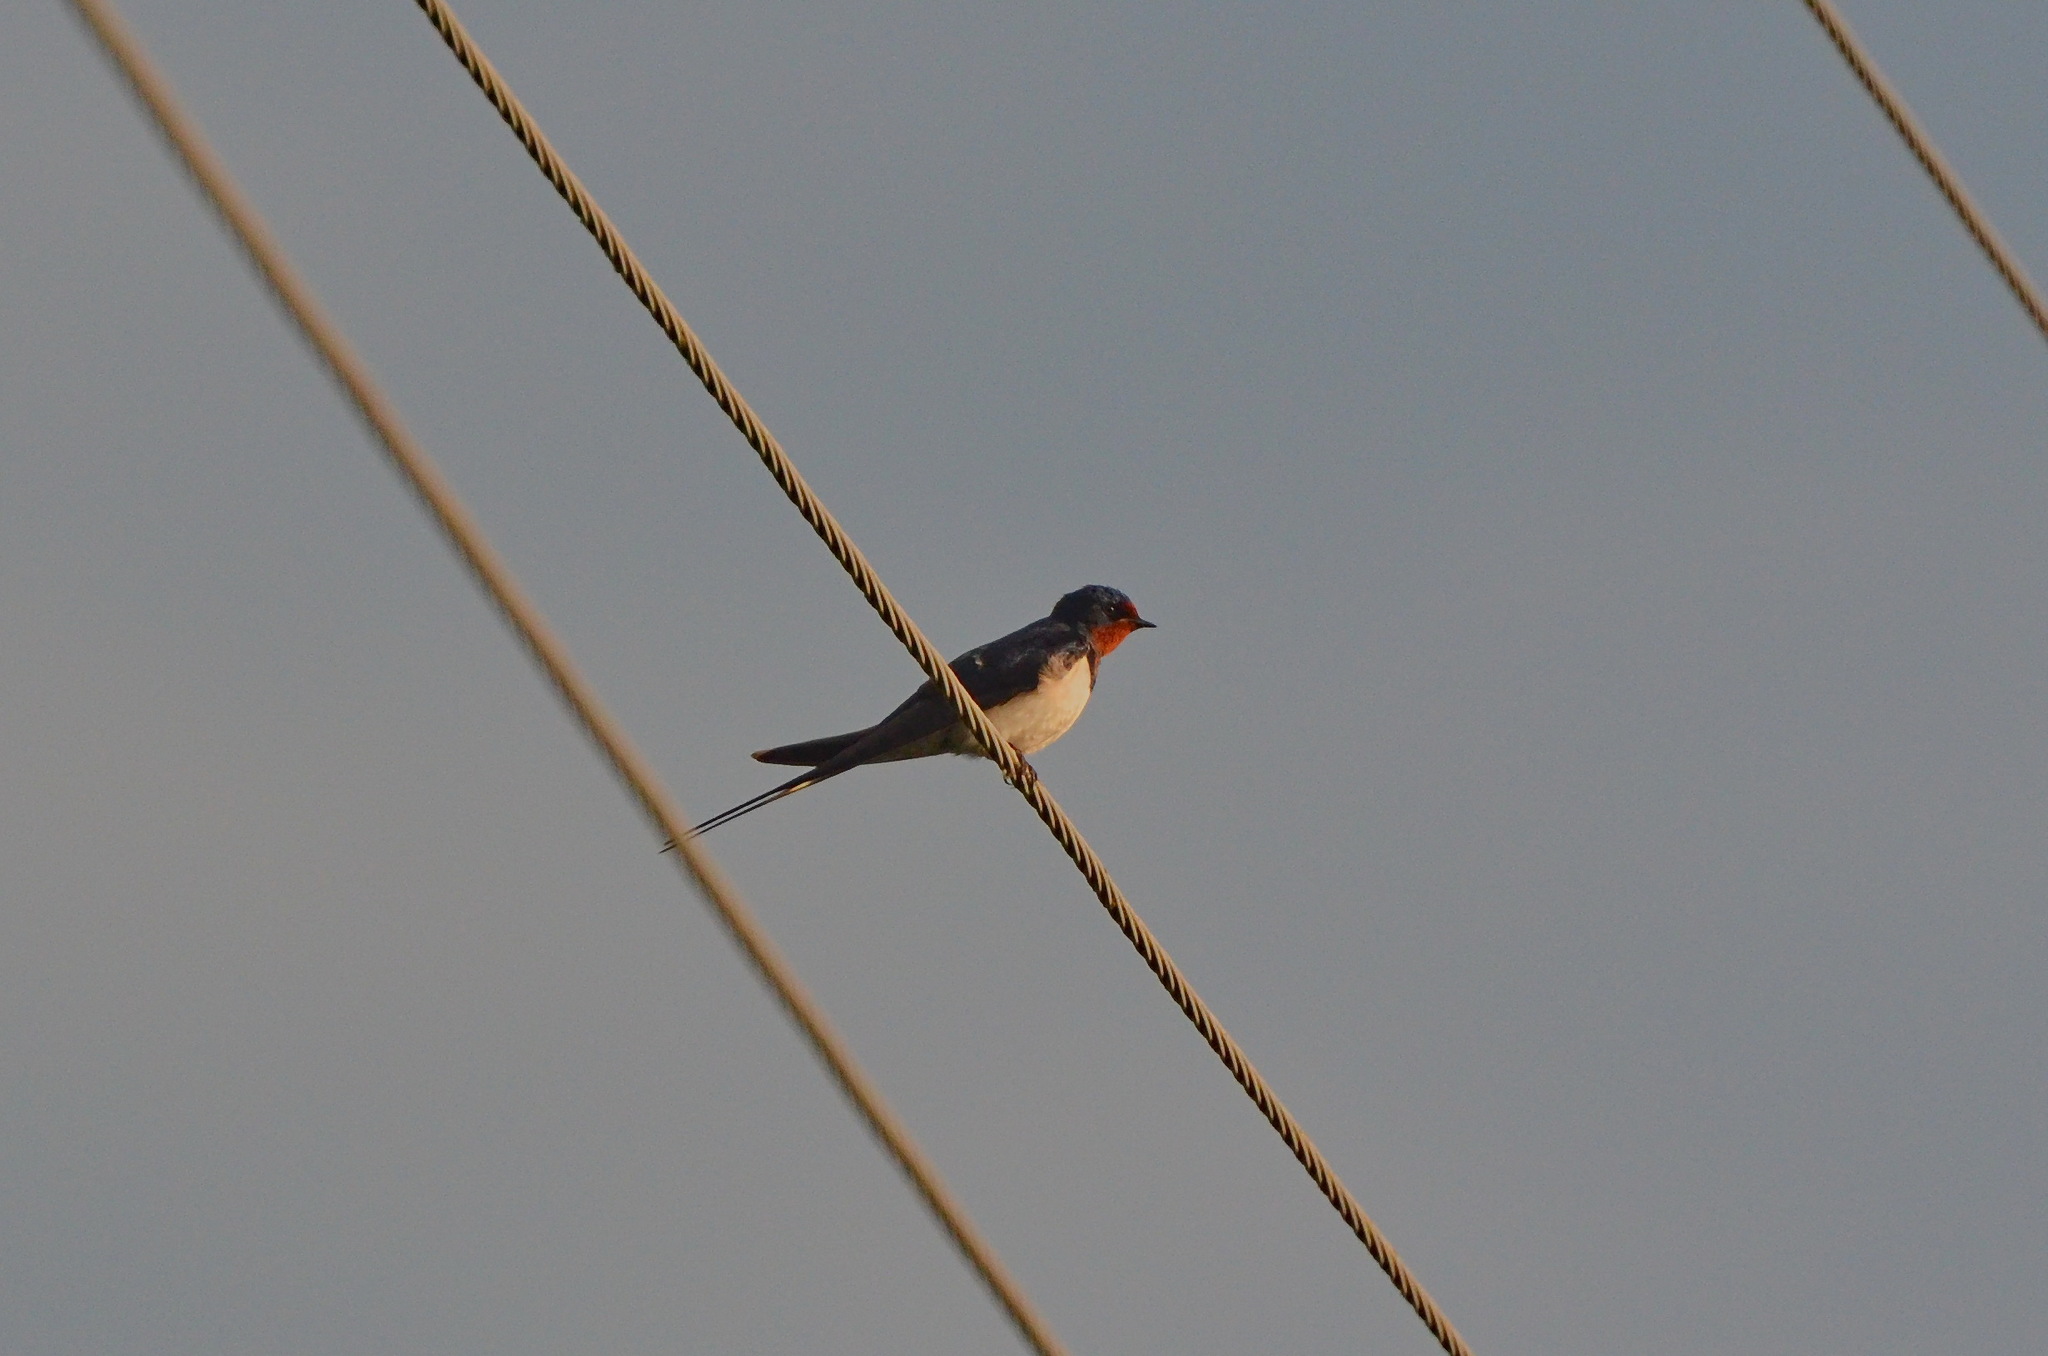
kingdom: Animalia
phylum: Chordata
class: Aves
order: Passeriformes
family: Hirundinidae
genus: Hirundo
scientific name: Hirundo rustica
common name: Barn swallow
